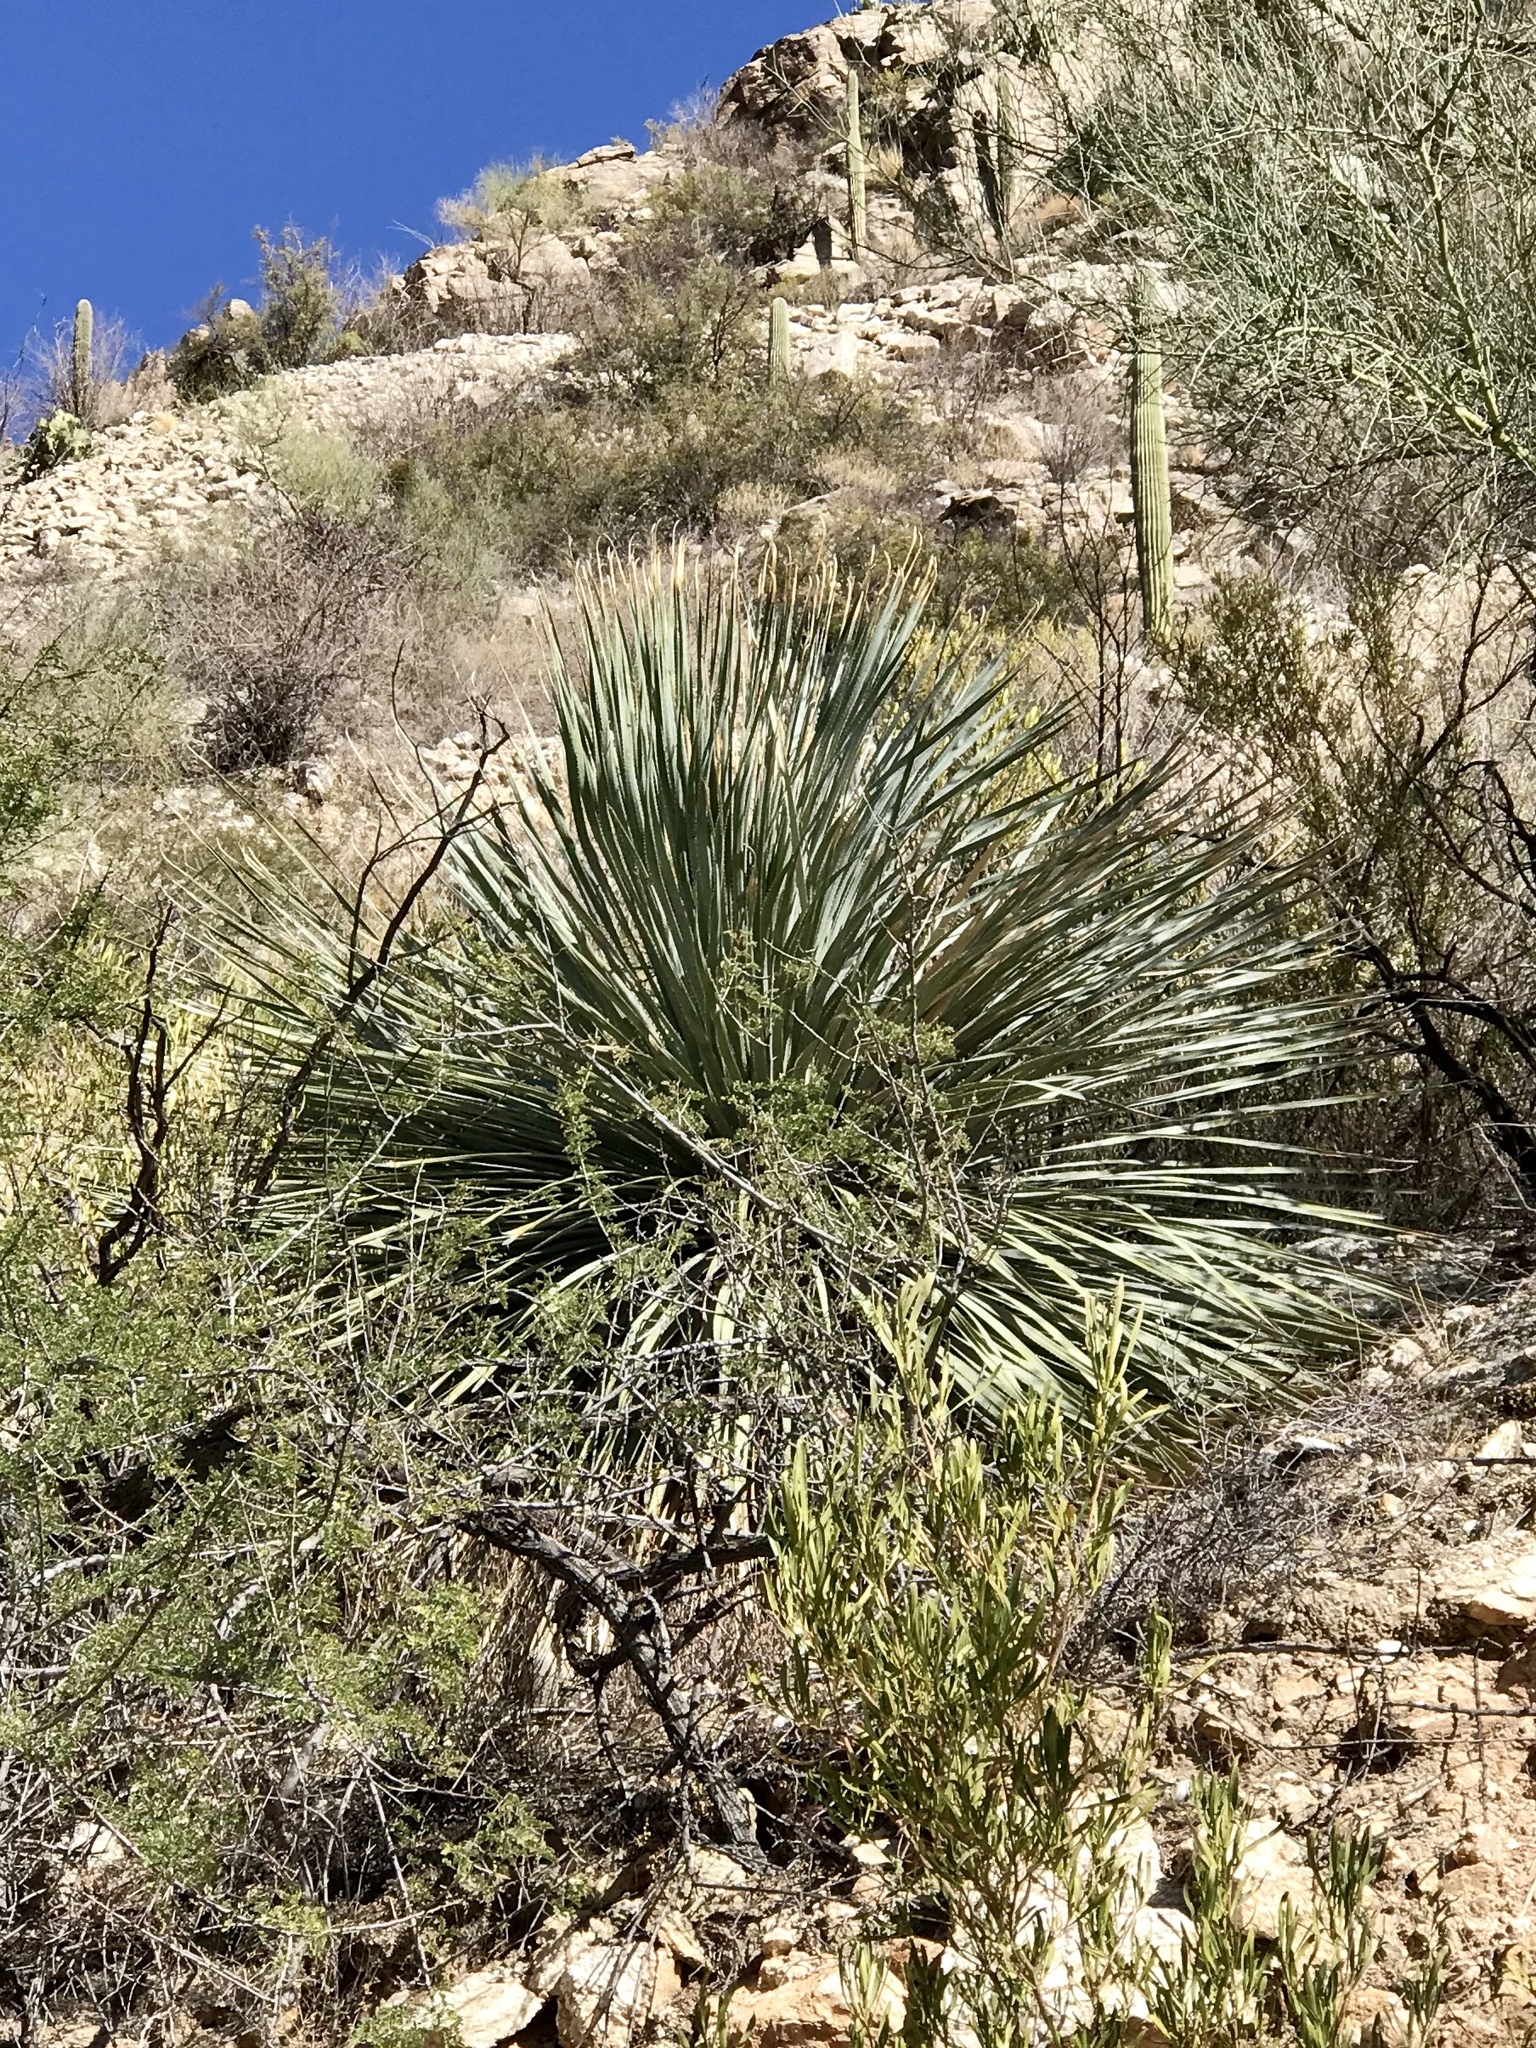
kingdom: Plantae
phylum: Tracheophyta
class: Liliopsida
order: Asparagales
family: Asparagaceae
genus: Dasylirion
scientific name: Dasylirion wheeleri
